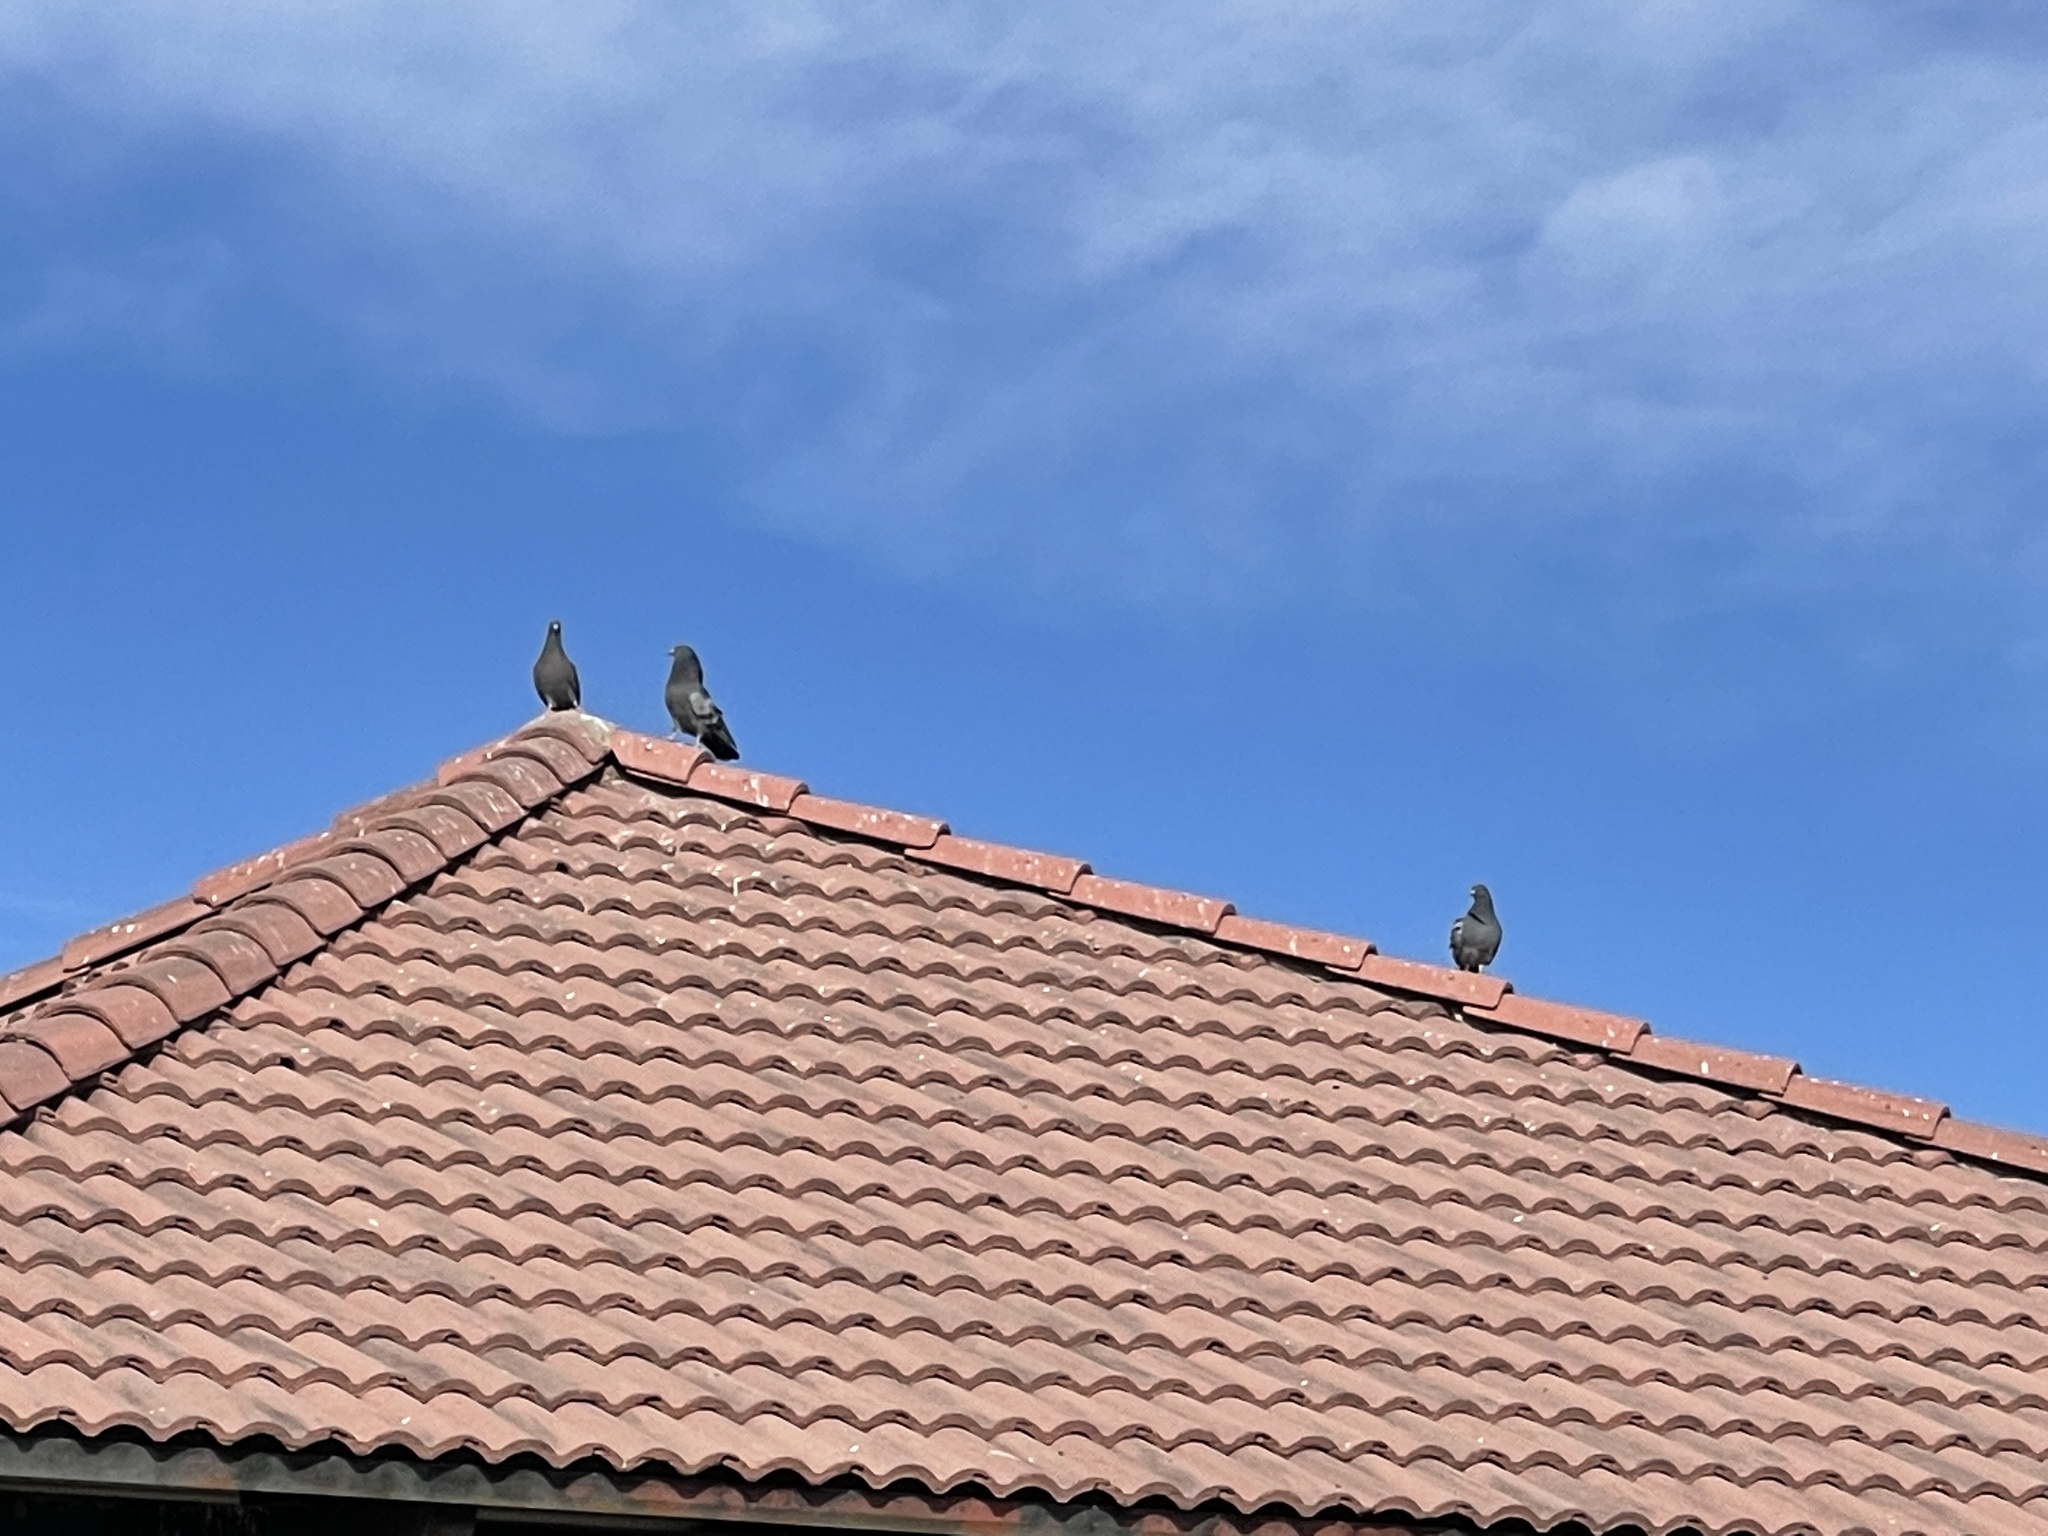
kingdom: Animalia
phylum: Chordata
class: Aves
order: Columbiformes
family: Columbidae
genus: Columba
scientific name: Columba livia
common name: Rock pigeon
